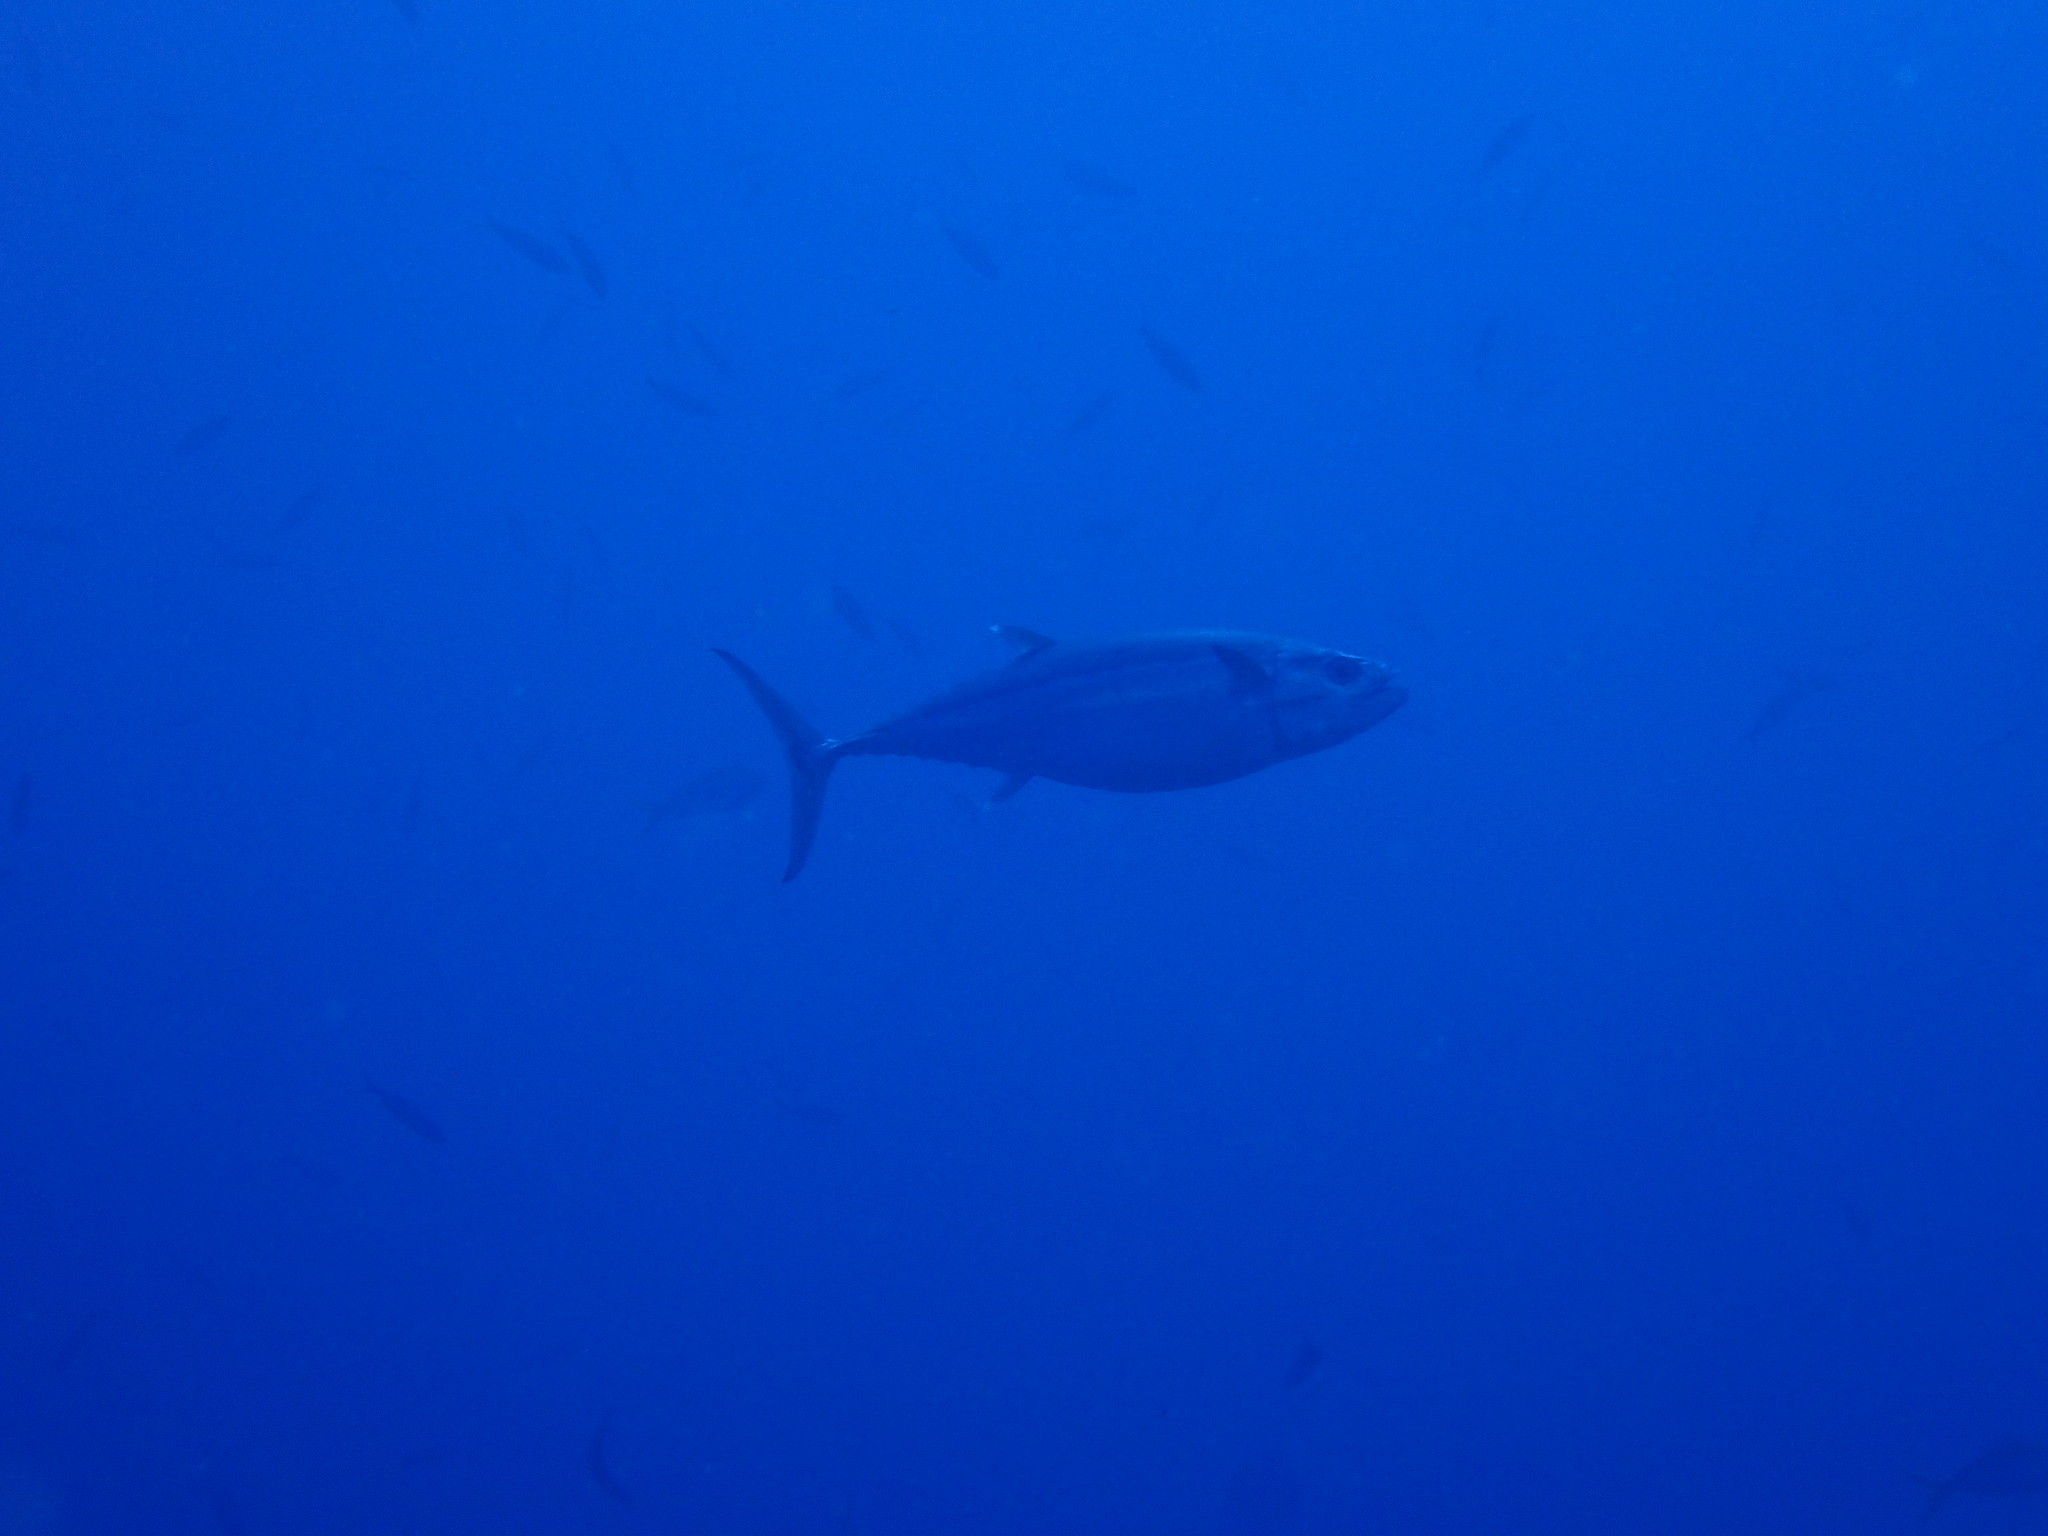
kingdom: Animalia
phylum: Chordata
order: Perciformes
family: Scombridae
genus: Gymnosarda
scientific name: Gymnosarda unicolor
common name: Dogtooth tuna
